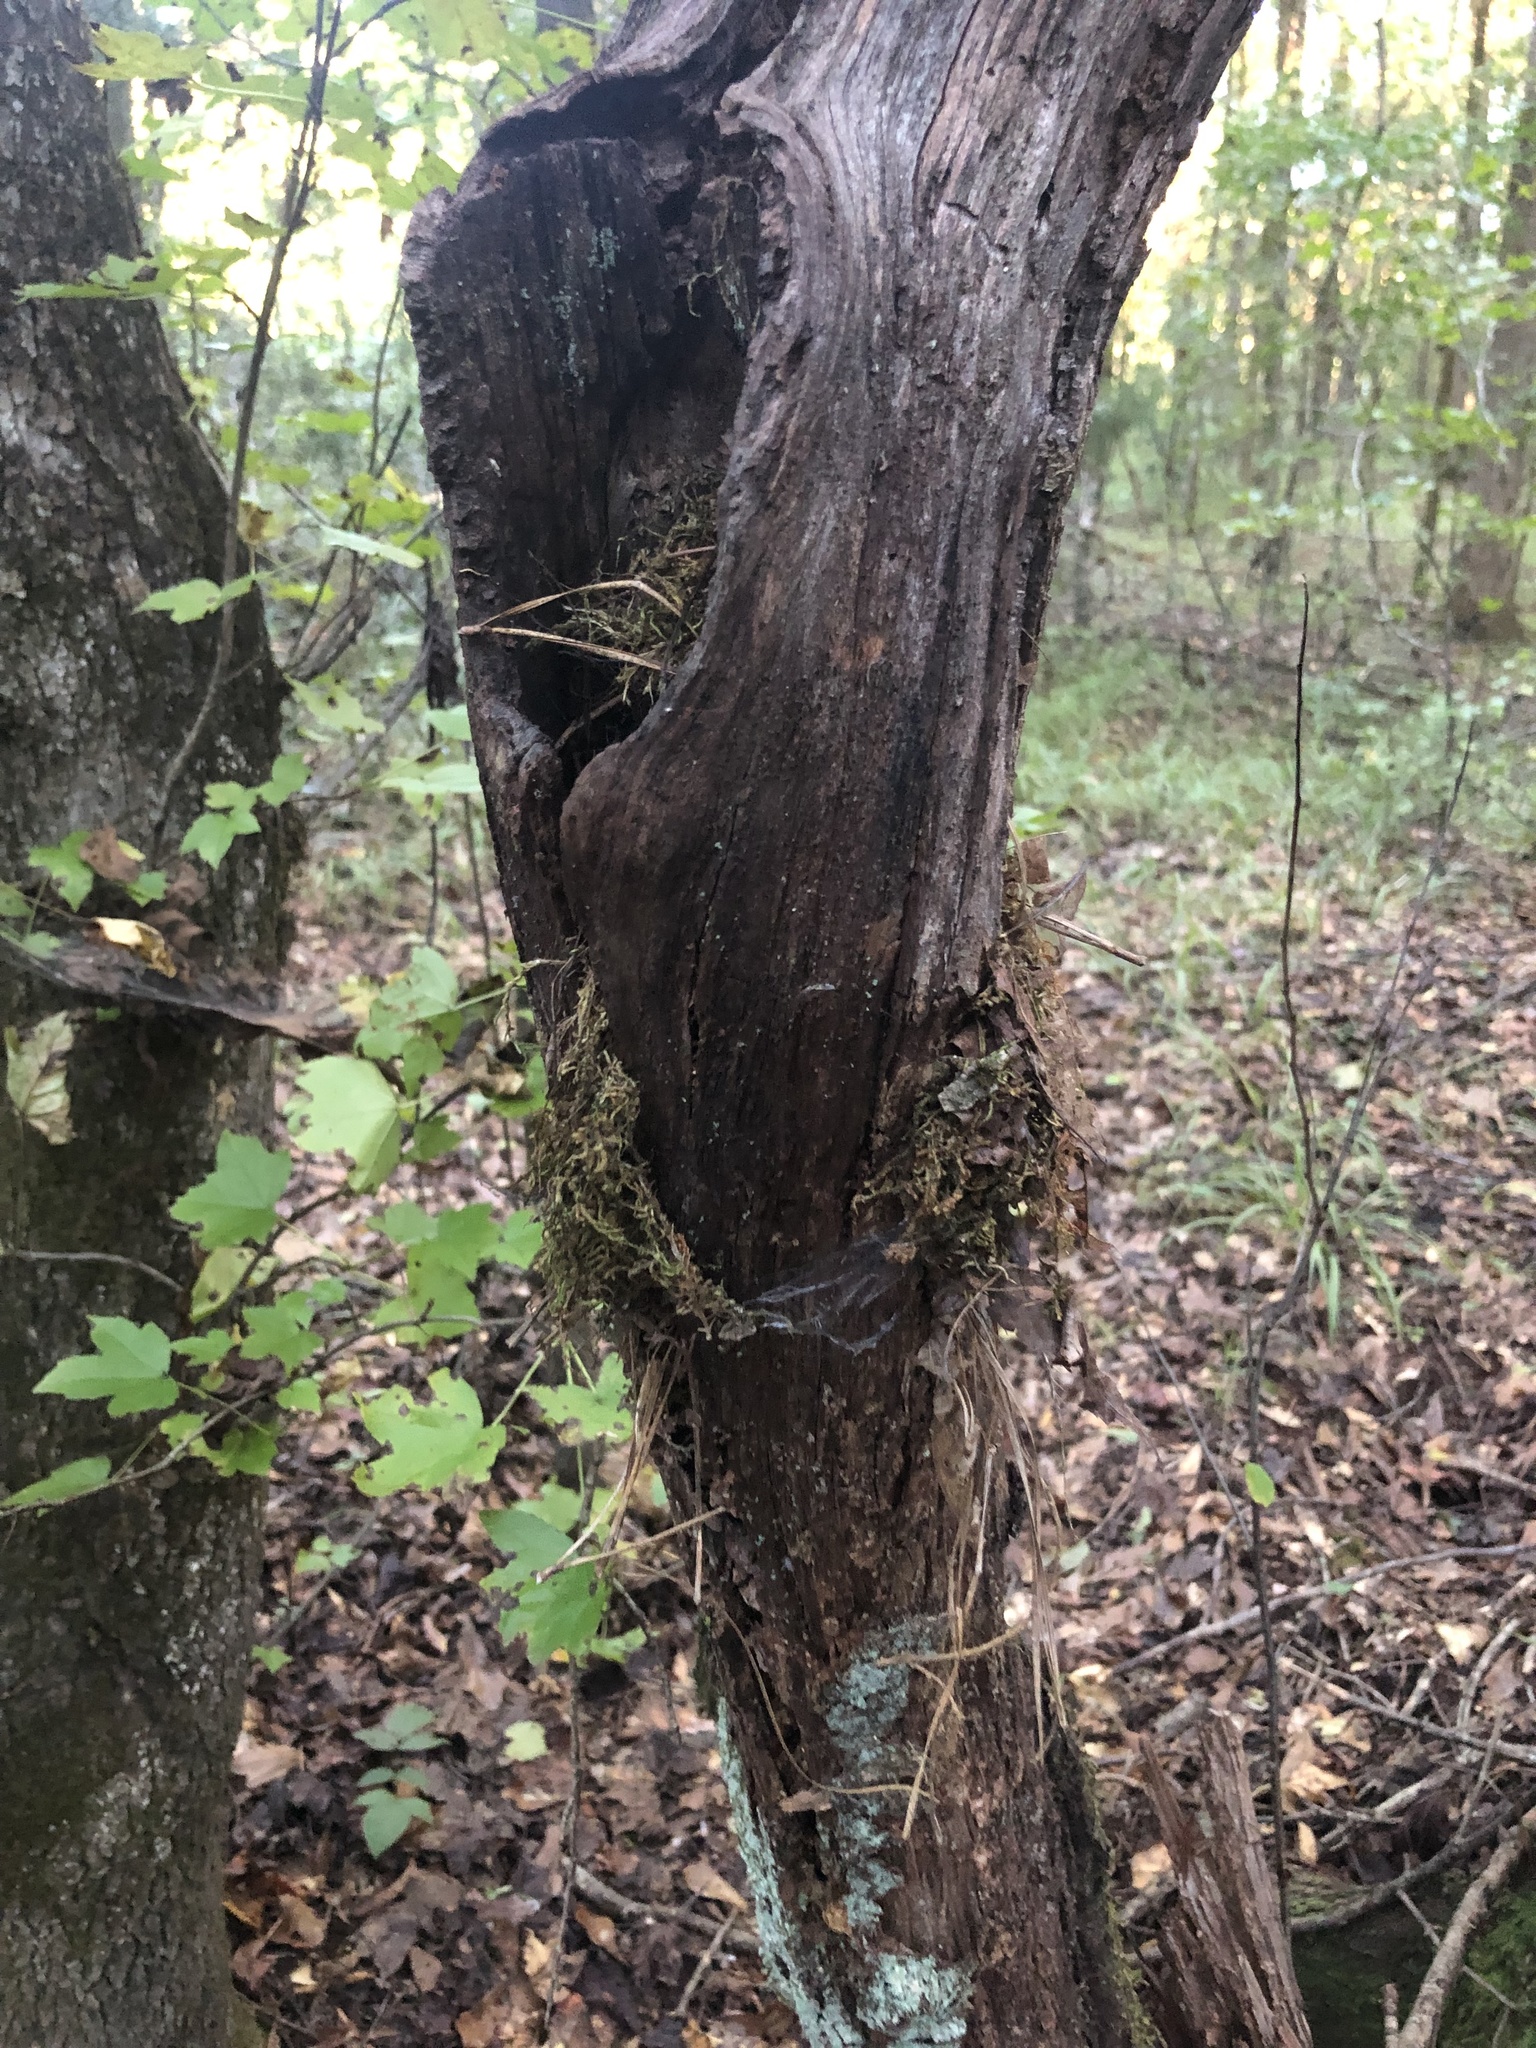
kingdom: Animalia
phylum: Chordata
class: Aves
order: Passeriformes
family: Troglodytidae
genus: Thryothorus
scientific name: Thryothorus ludovicianus
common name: Carolina wren
